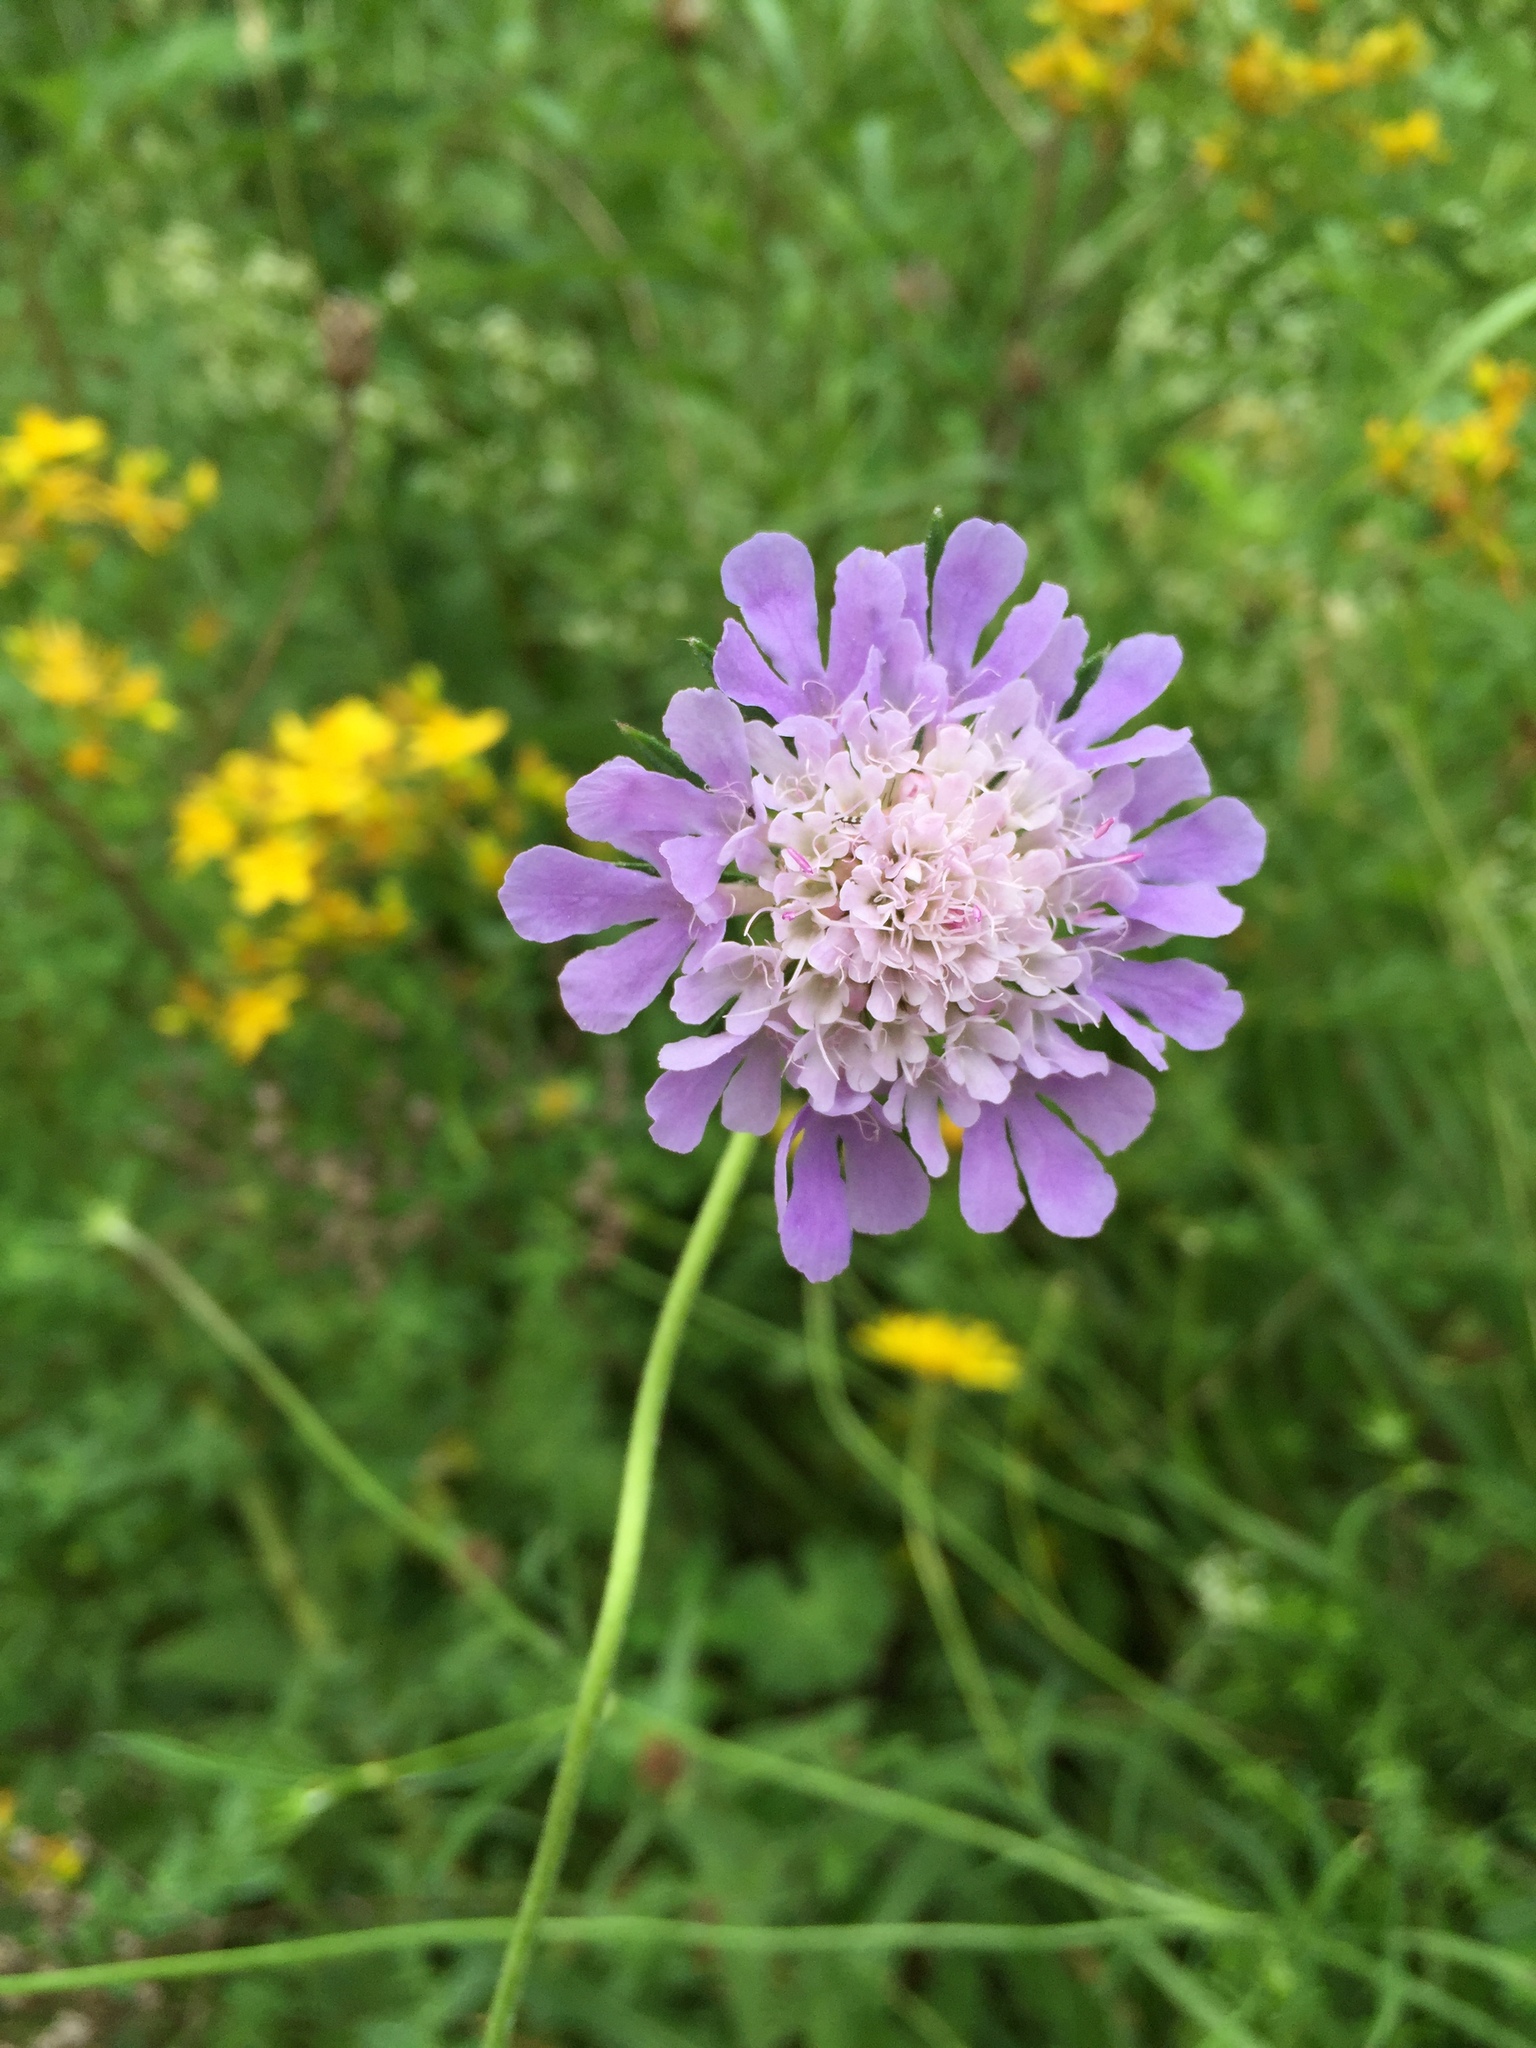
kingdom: Plantae
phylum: Tracheophyta
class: Magnoliopsida
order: Dipsacales
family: Caprifoliaceae
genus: Knautia
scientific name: Knautia arvensis
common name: Field scabiosa
